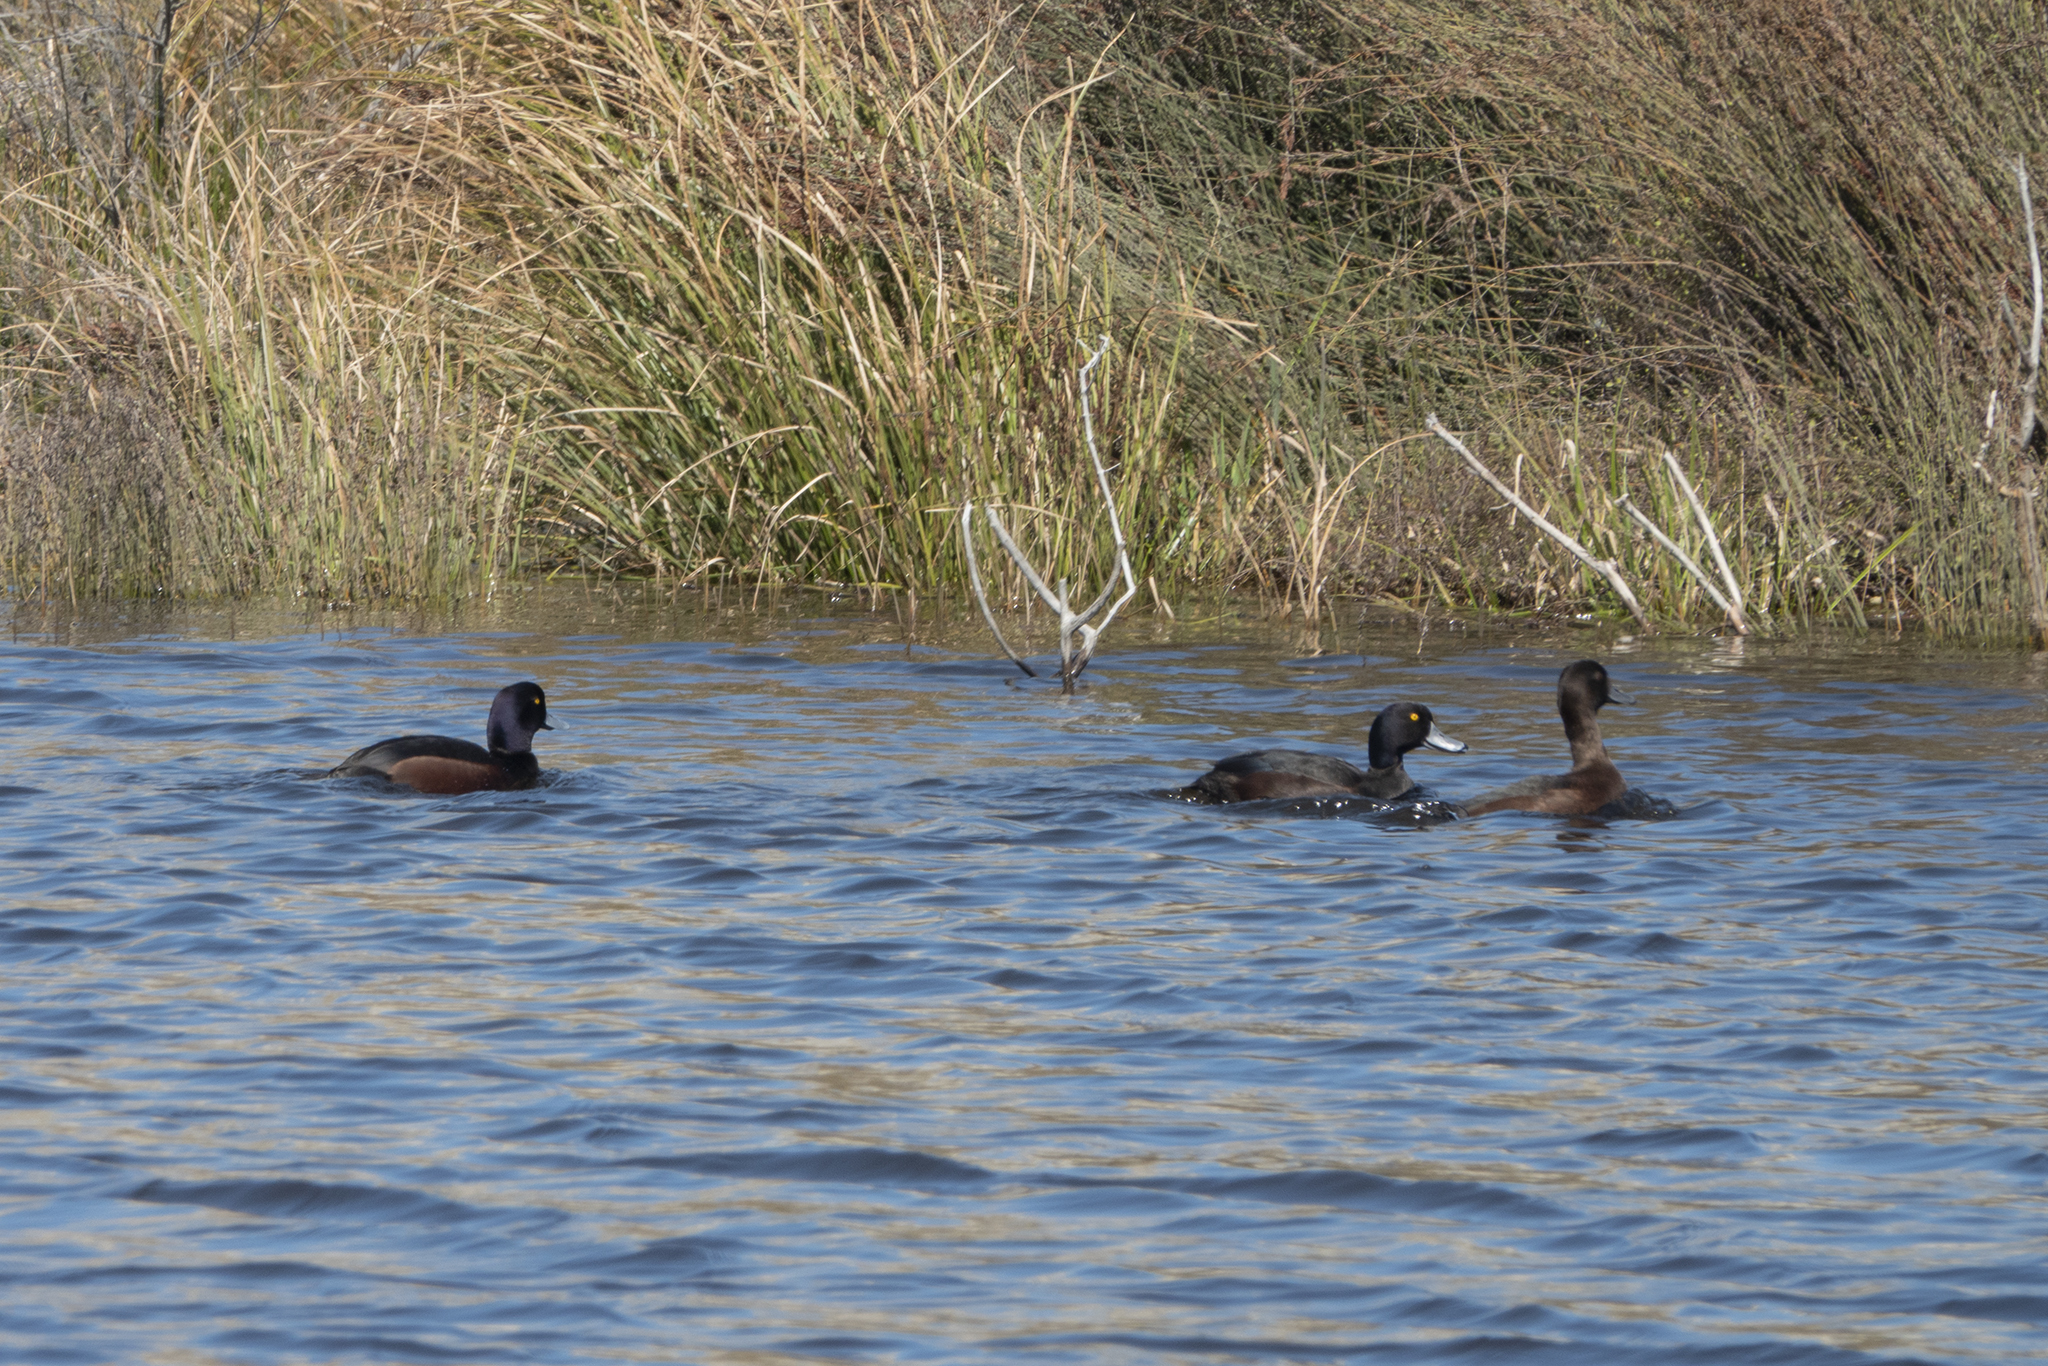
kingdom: Animalia
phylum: Chordata
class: Aves
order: Anseriformes
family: Anatidae
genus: Aythya
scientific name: Aythya novaeseelandiae
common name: New zealand scaup
